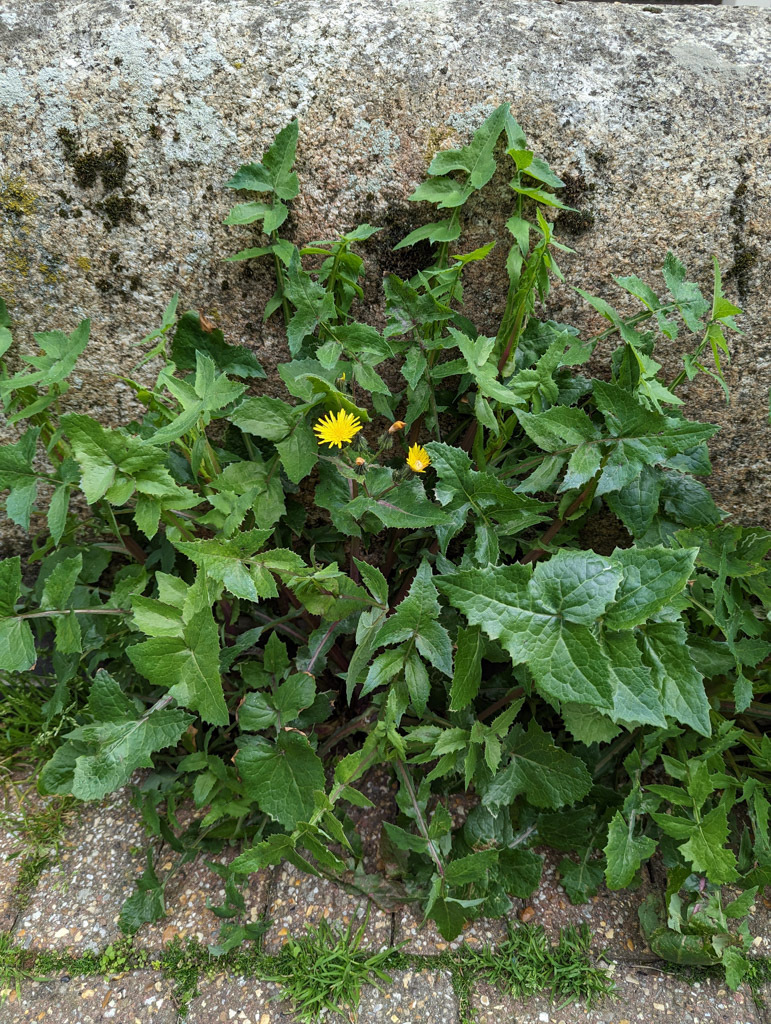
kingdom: Plantae
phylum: Tracheophyta
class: Magnoliopsida
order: Asterales
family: Asteraceae
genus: Sonchus
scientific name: Sonchus oleraceus
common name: Common sowthistle
